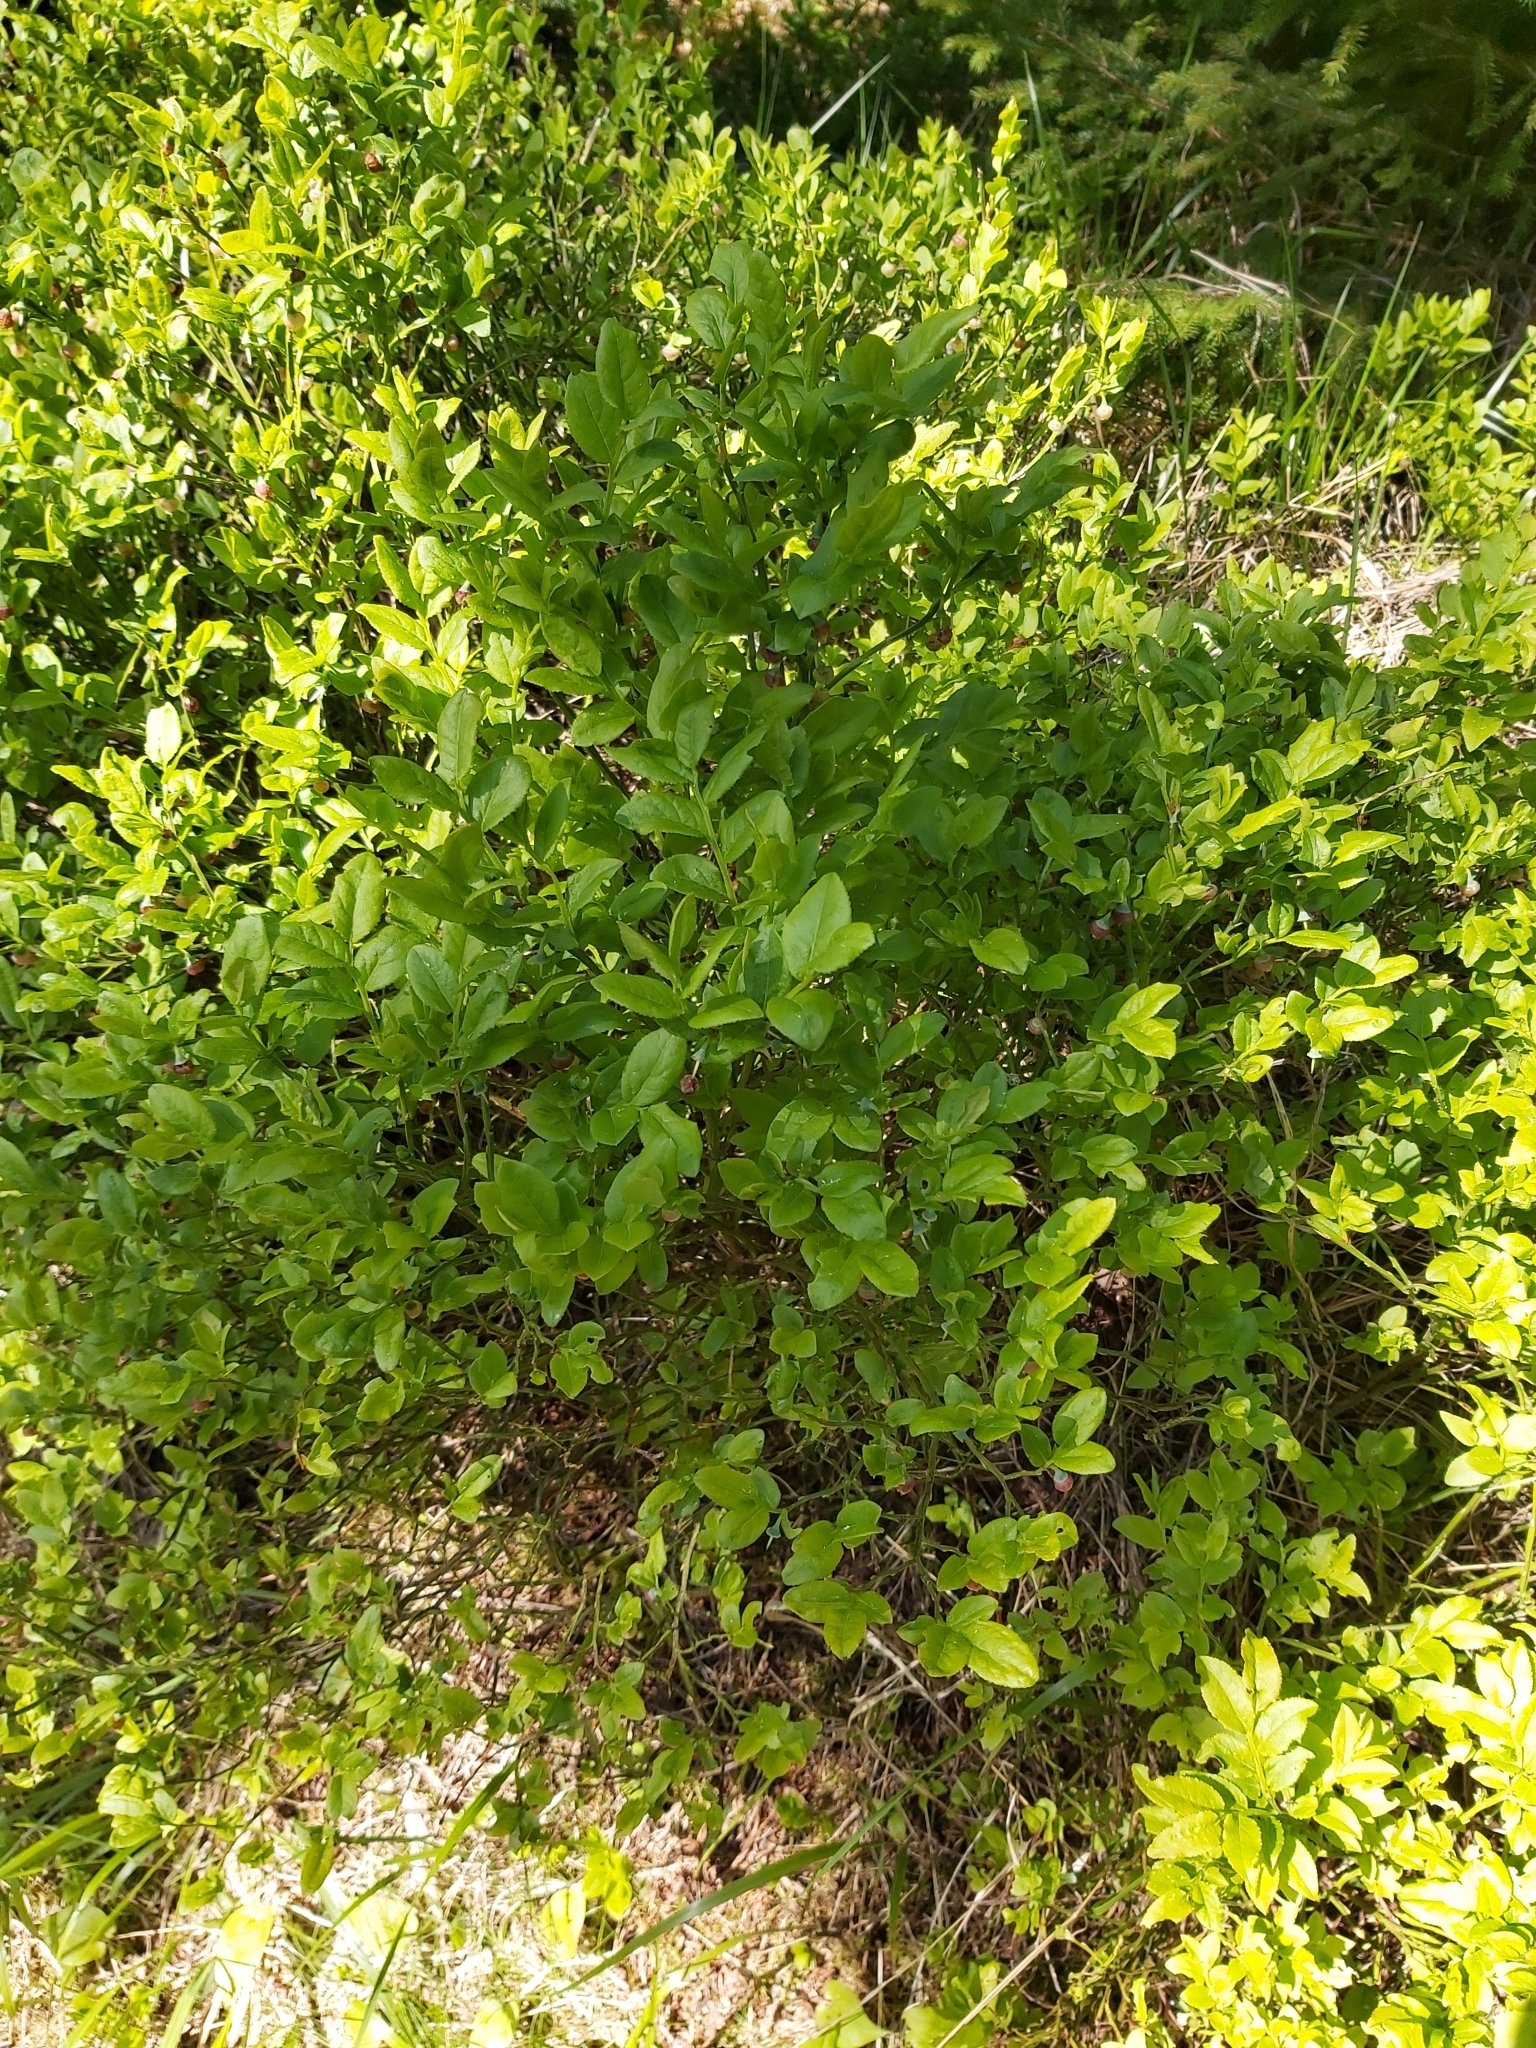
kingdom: Plantae
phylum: Tracheophyta
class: Magnoliopsida
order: Ericales
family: Ericaceae
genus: Vaccinium
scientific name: Vaccinium myrtillus
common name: Bilberry
